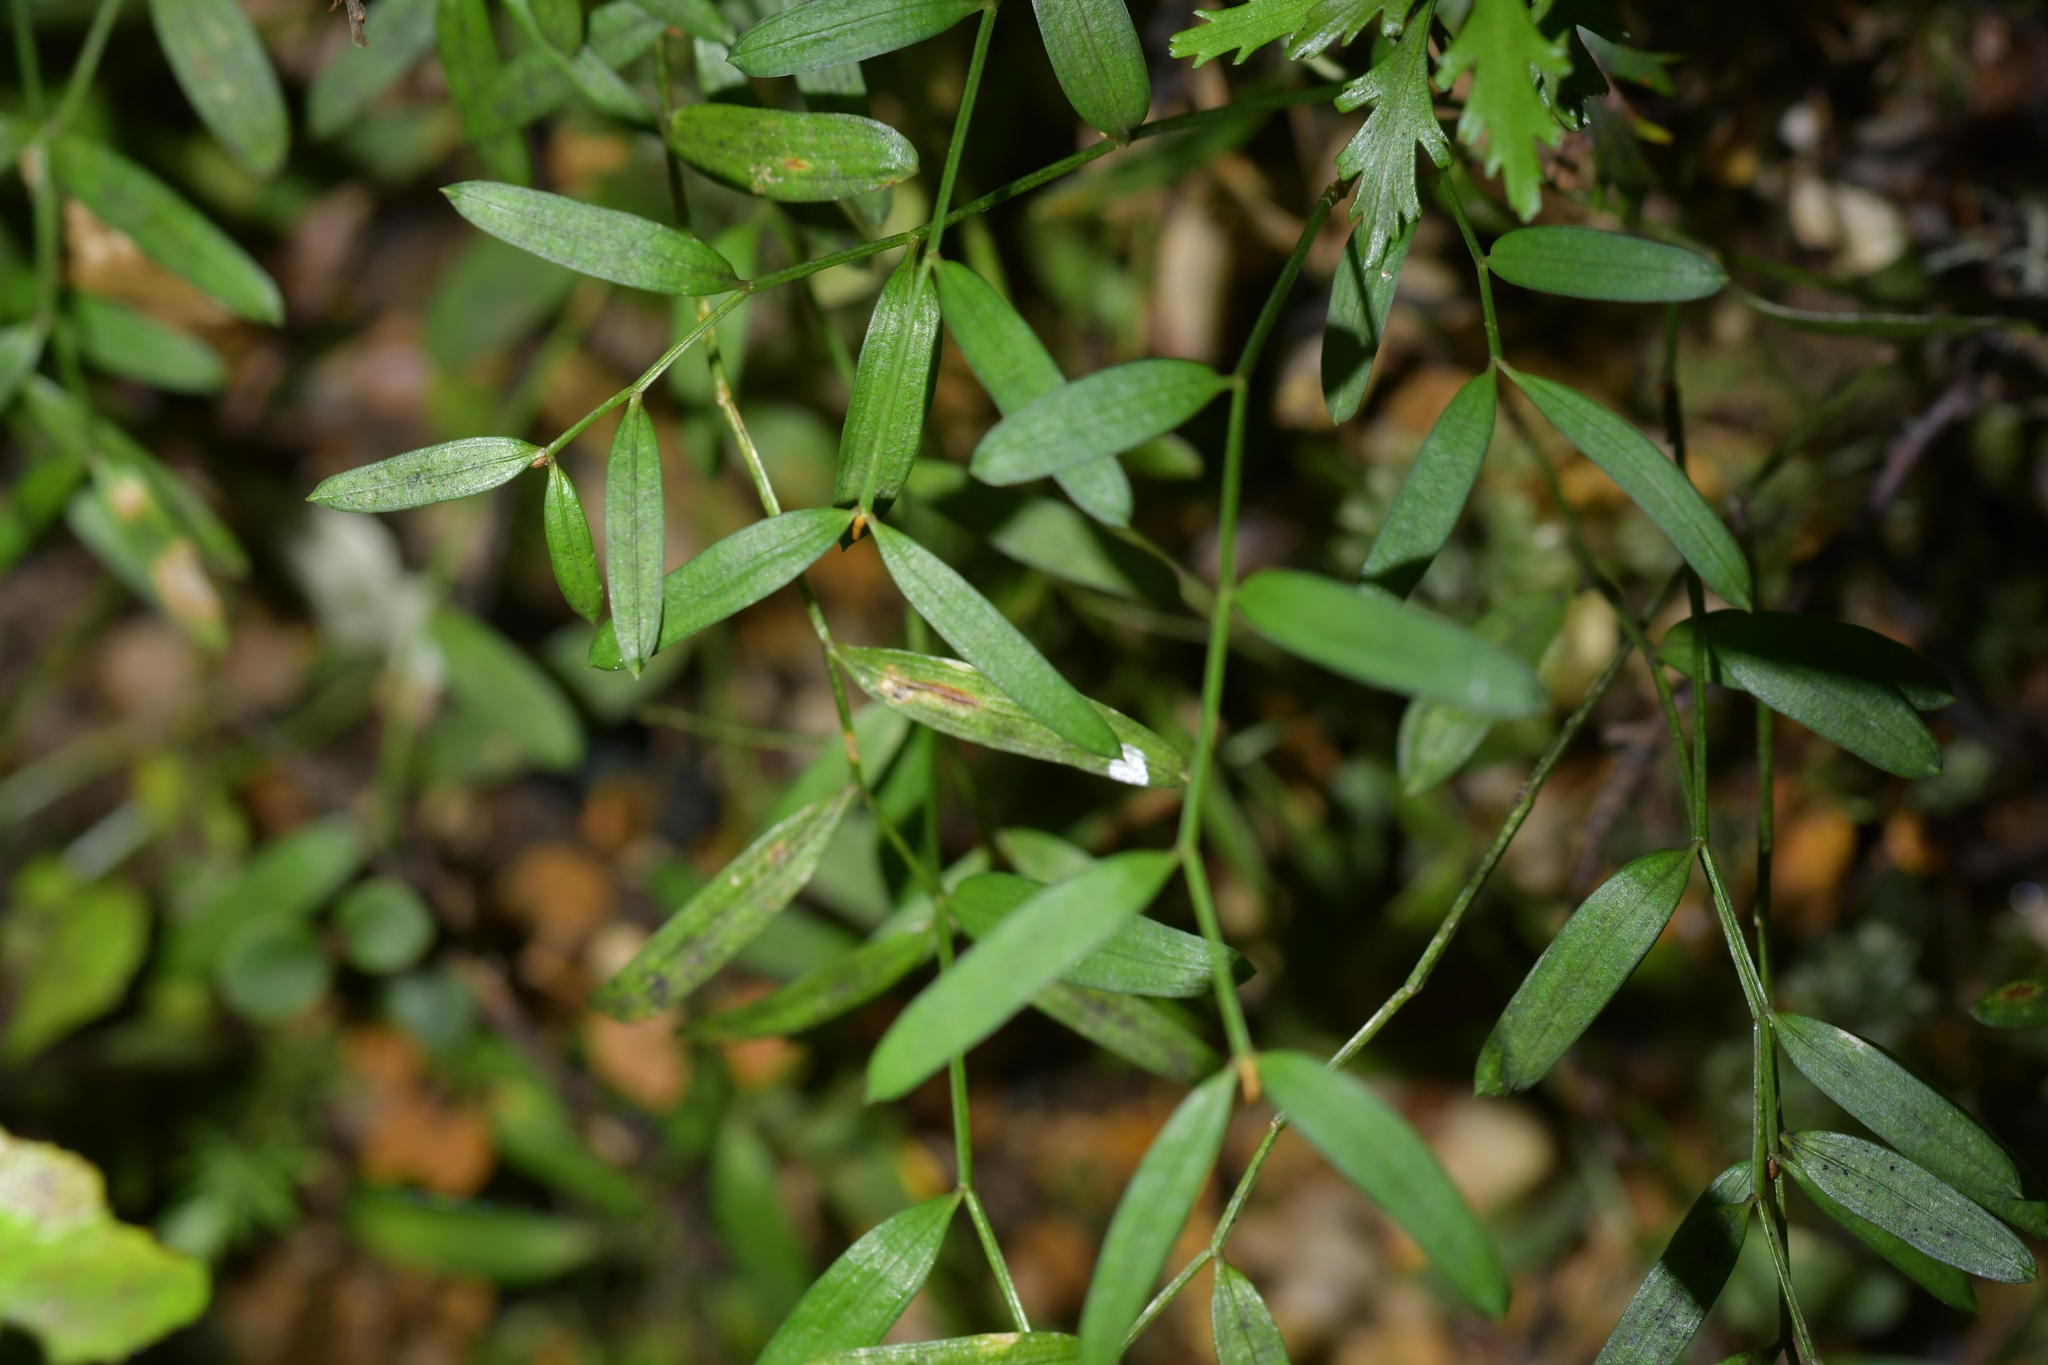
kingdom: Plantae
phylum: Tracheophyta
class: Liliopsida
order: Liliales
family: Alstroemeriaceae
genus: Luzuriaga
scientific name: Luzuriaga parviflora
